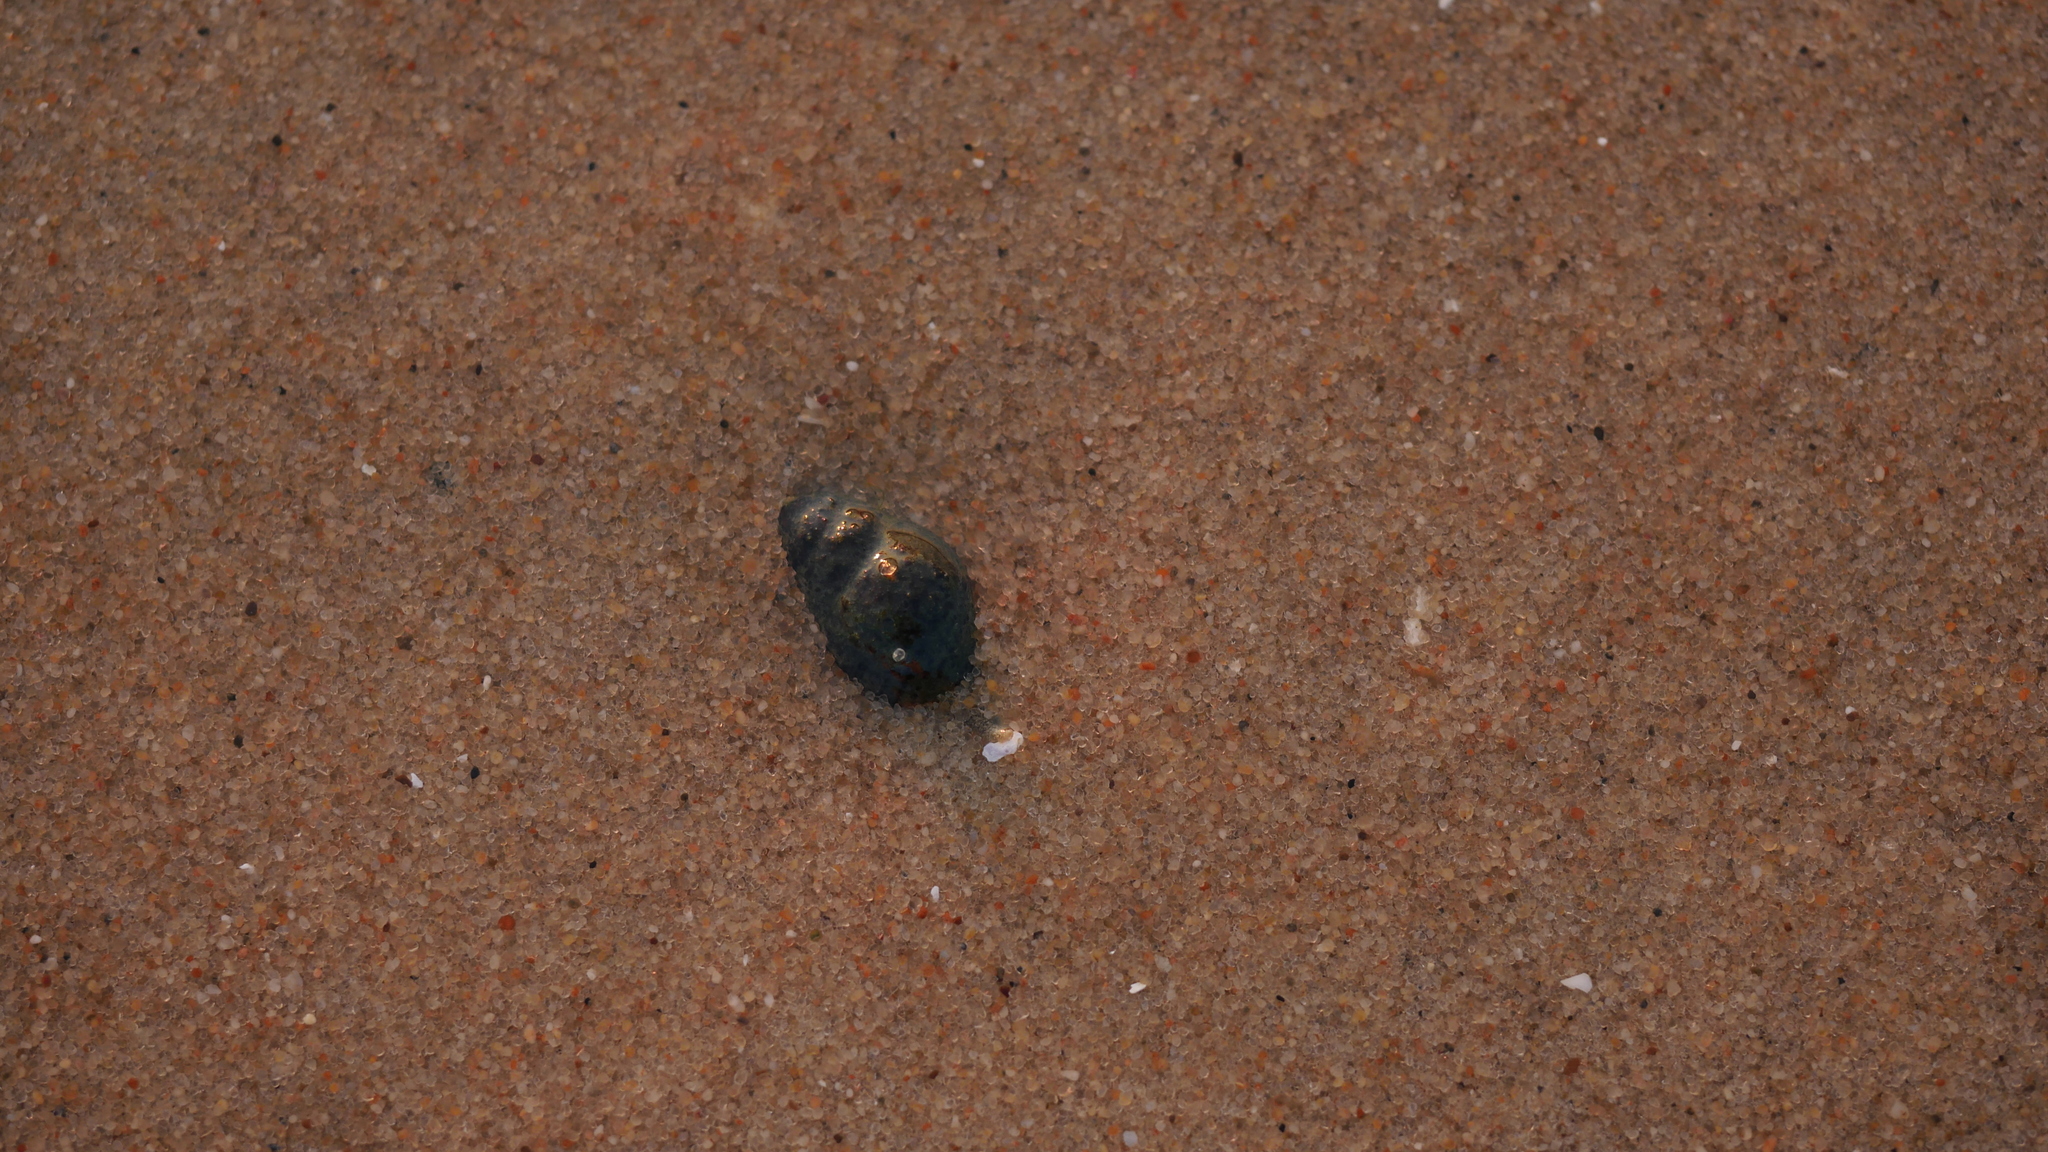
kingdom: Animalia
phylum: Mollusca
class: Gastropoda
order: Neogastropoda
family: Nassariidae
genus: Ilyanassa
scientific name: Ilyanassa obsoleta
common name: Eastern mudsnail
